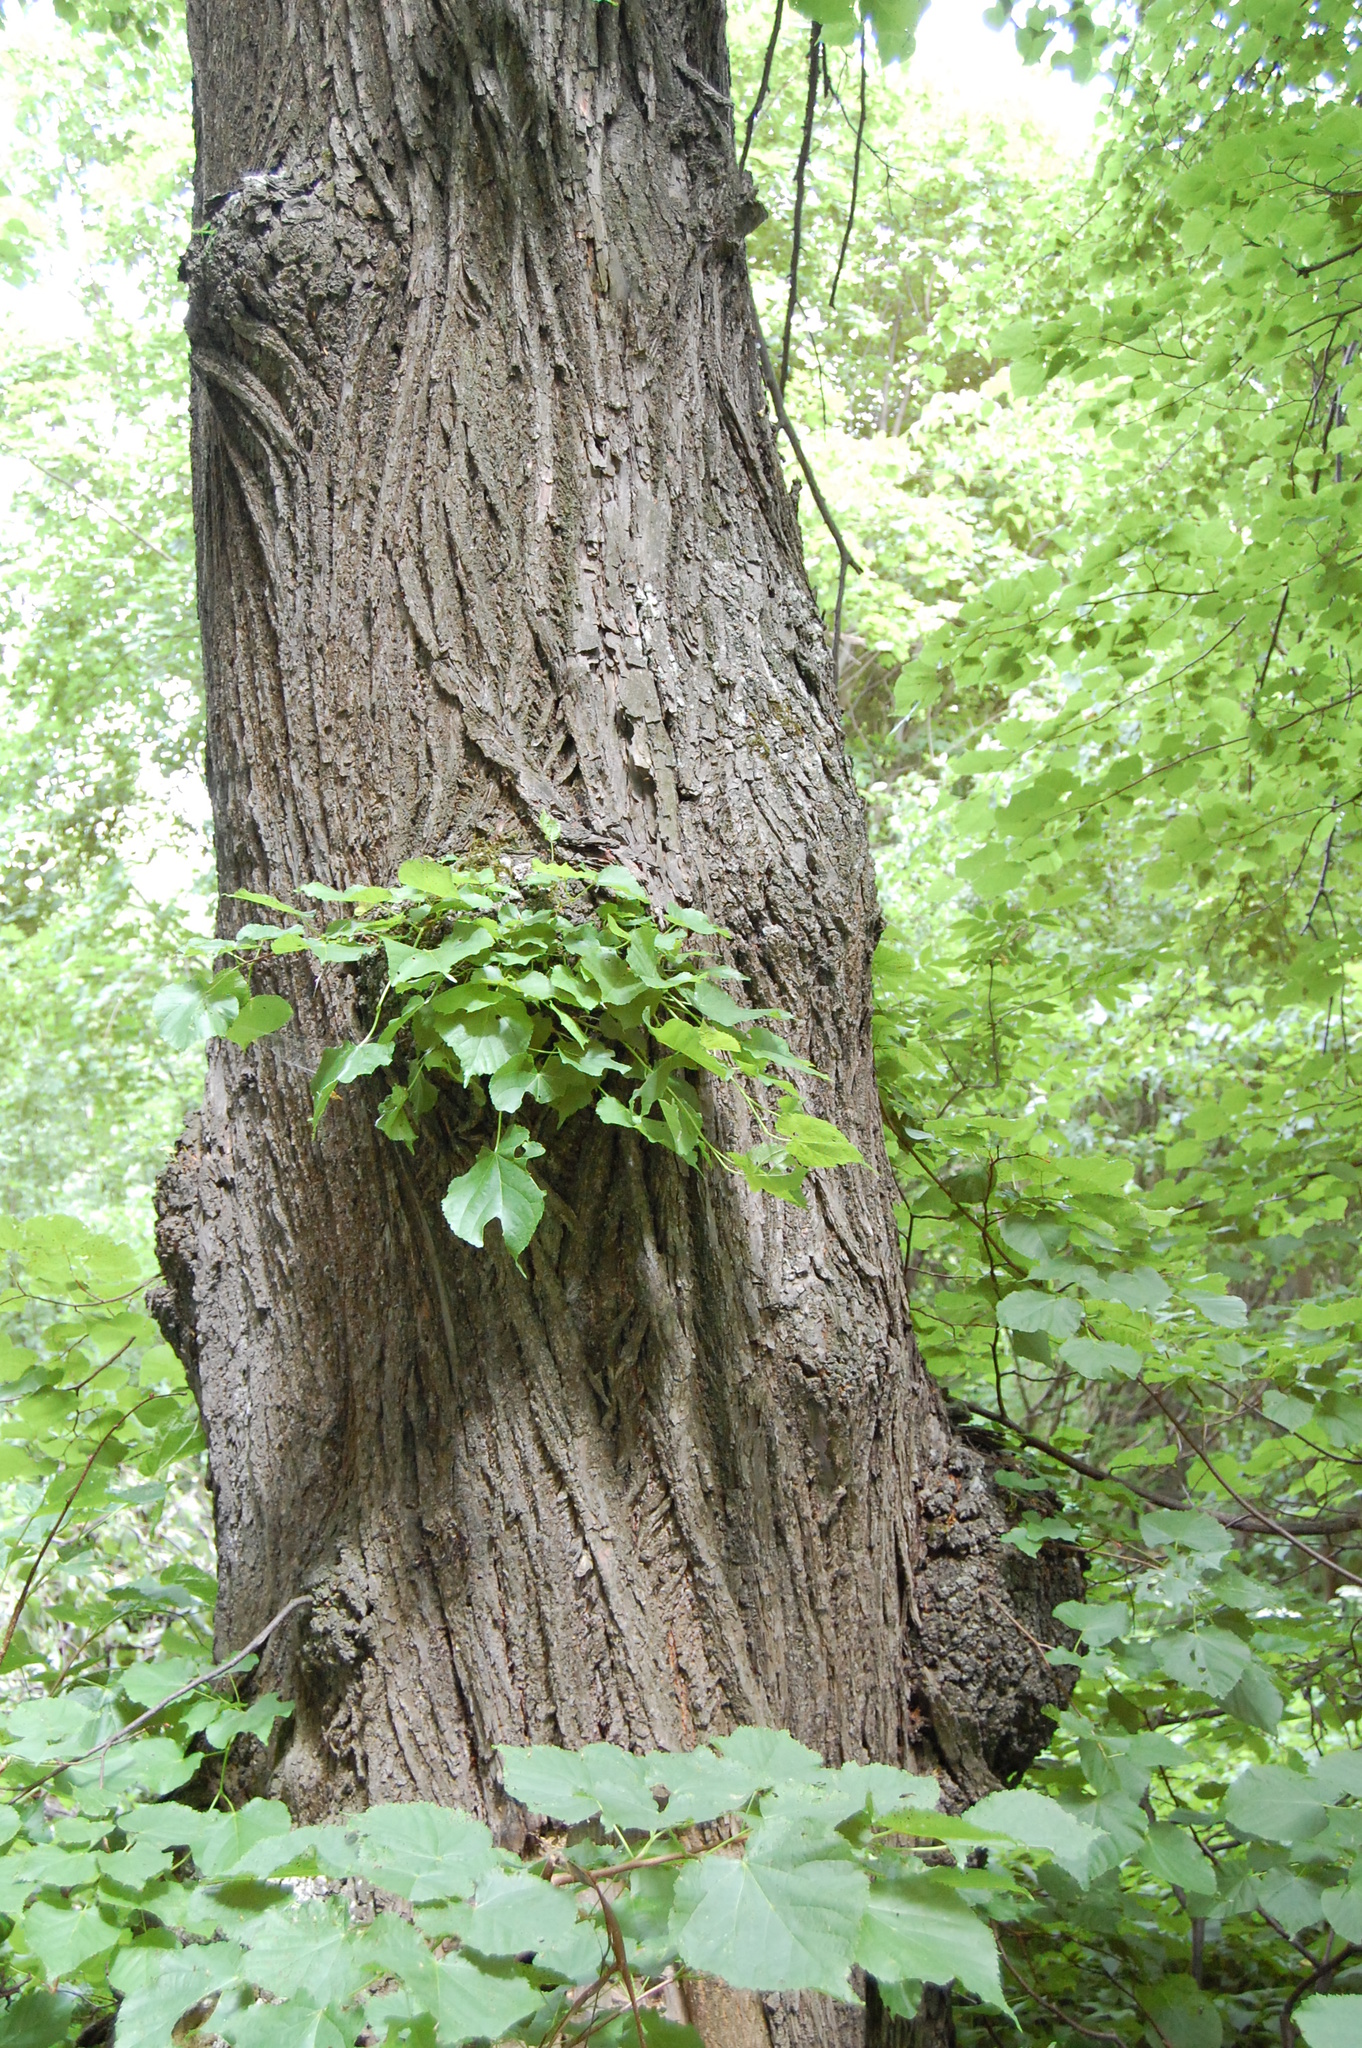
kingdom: Plantae
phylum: Tracheophyta
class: Magnoliopsida
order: Malvales
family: Malvaceae
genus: Tilia
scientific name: Tilia cordata
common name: Small-leaved lime
